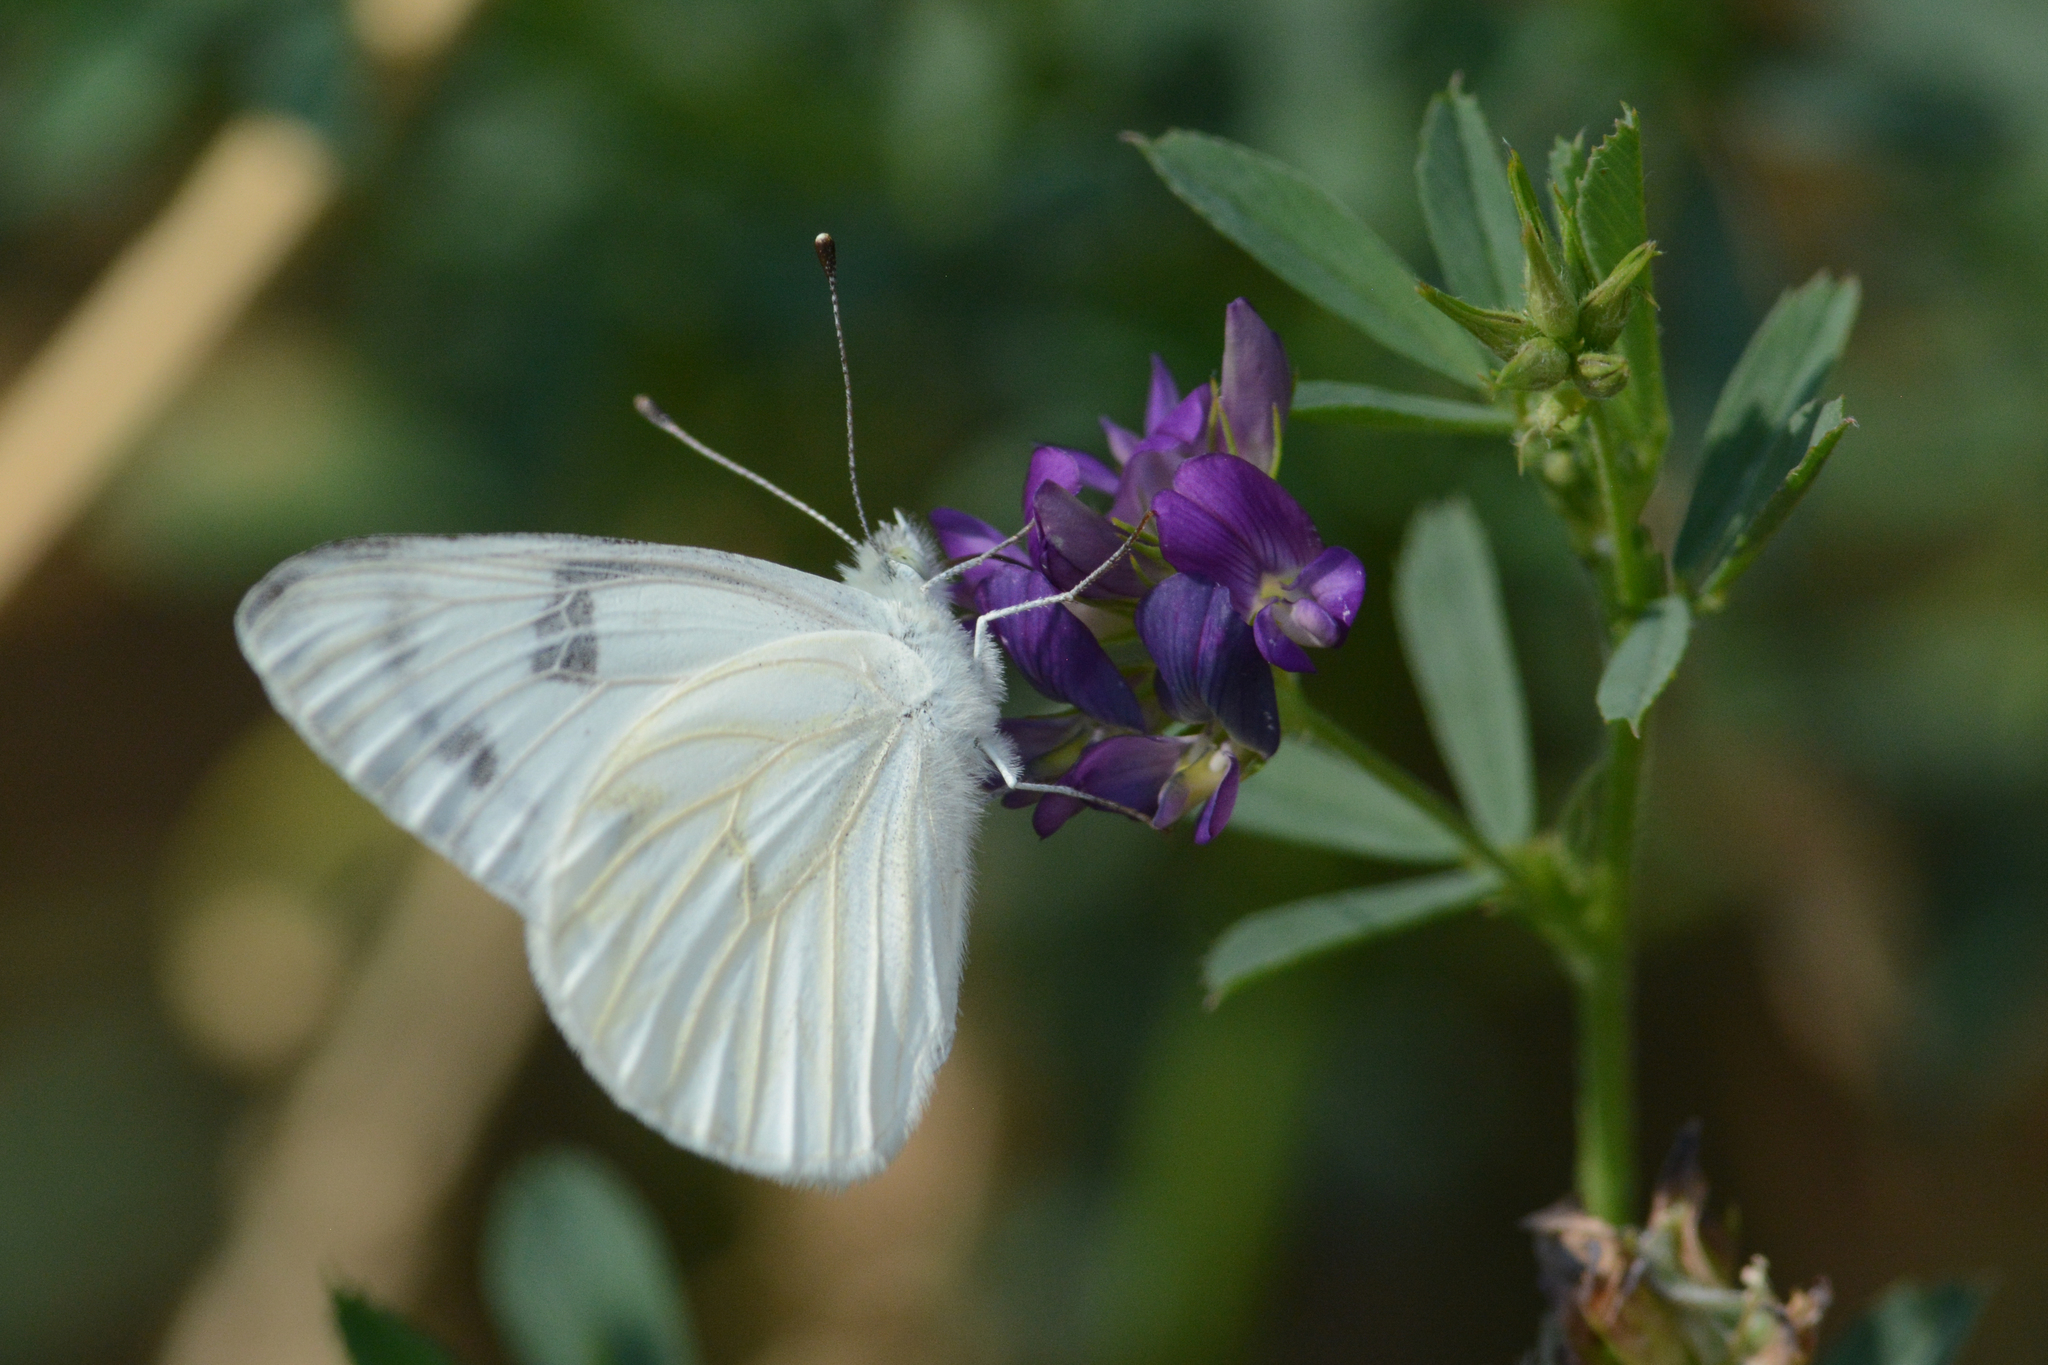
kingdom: Animalia
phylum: Arthropoda
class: Insecta
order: Lepidoptera
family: Pieridae
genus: Pontia
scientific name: Pontia occidentalis
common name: Western white
